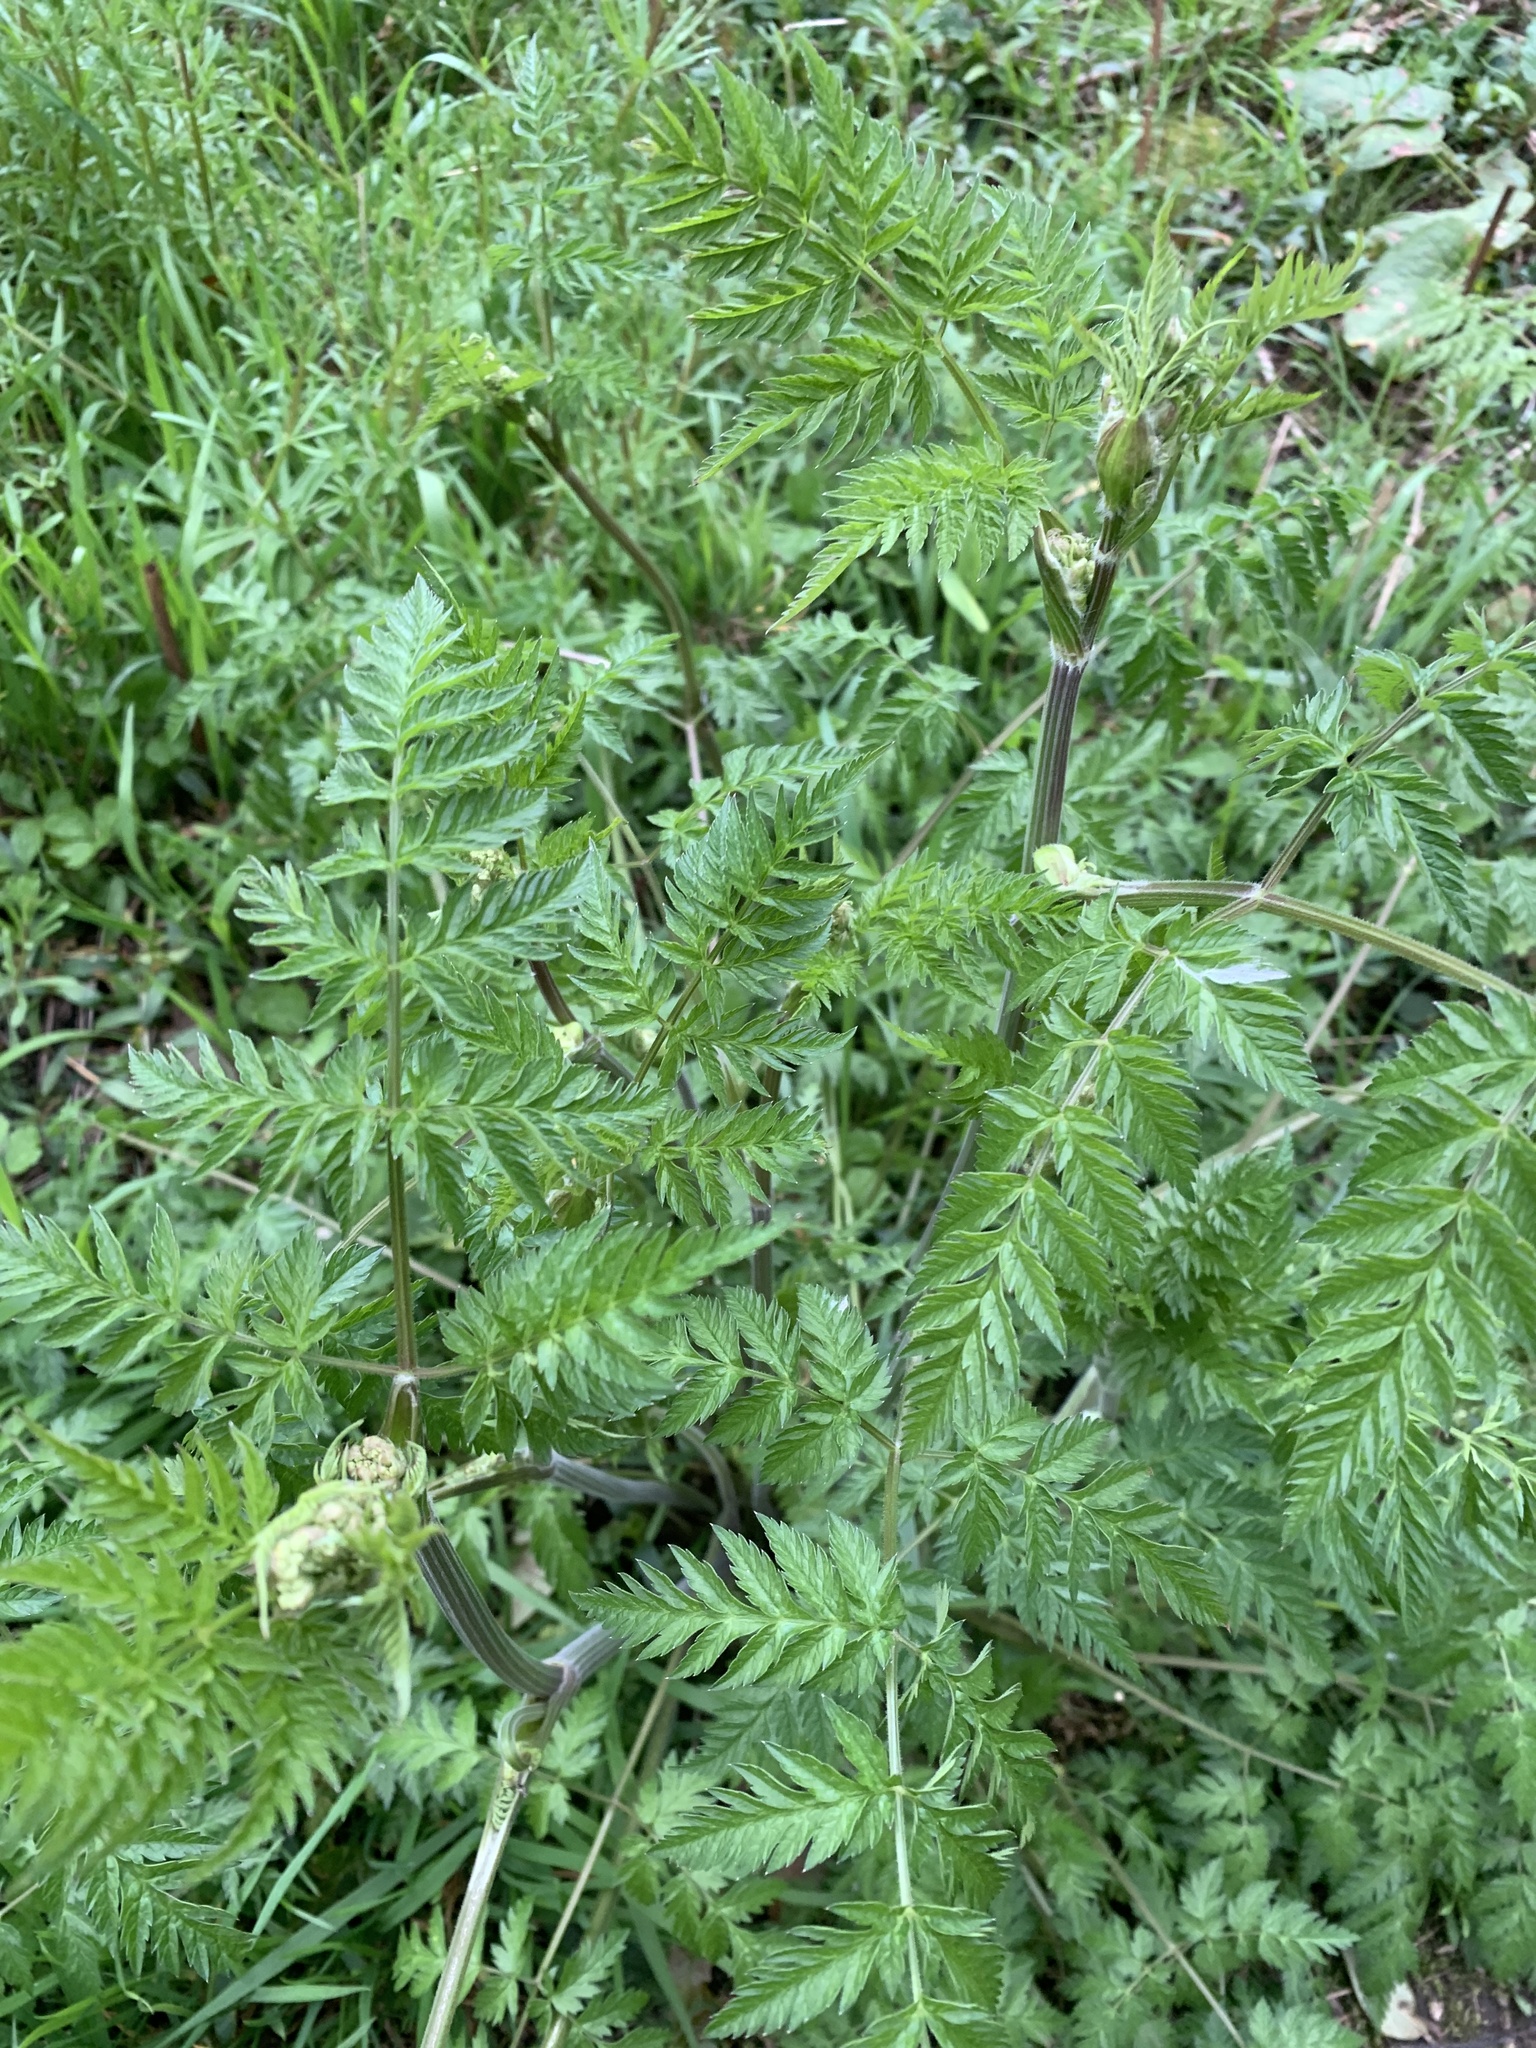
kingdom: Plantae
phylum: Tracheophyta
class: Magnoliopsida
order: Apiales
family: Apiaceae
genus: Anthriscus
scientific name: Anthriscus sylvestris
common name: Cow parsley
